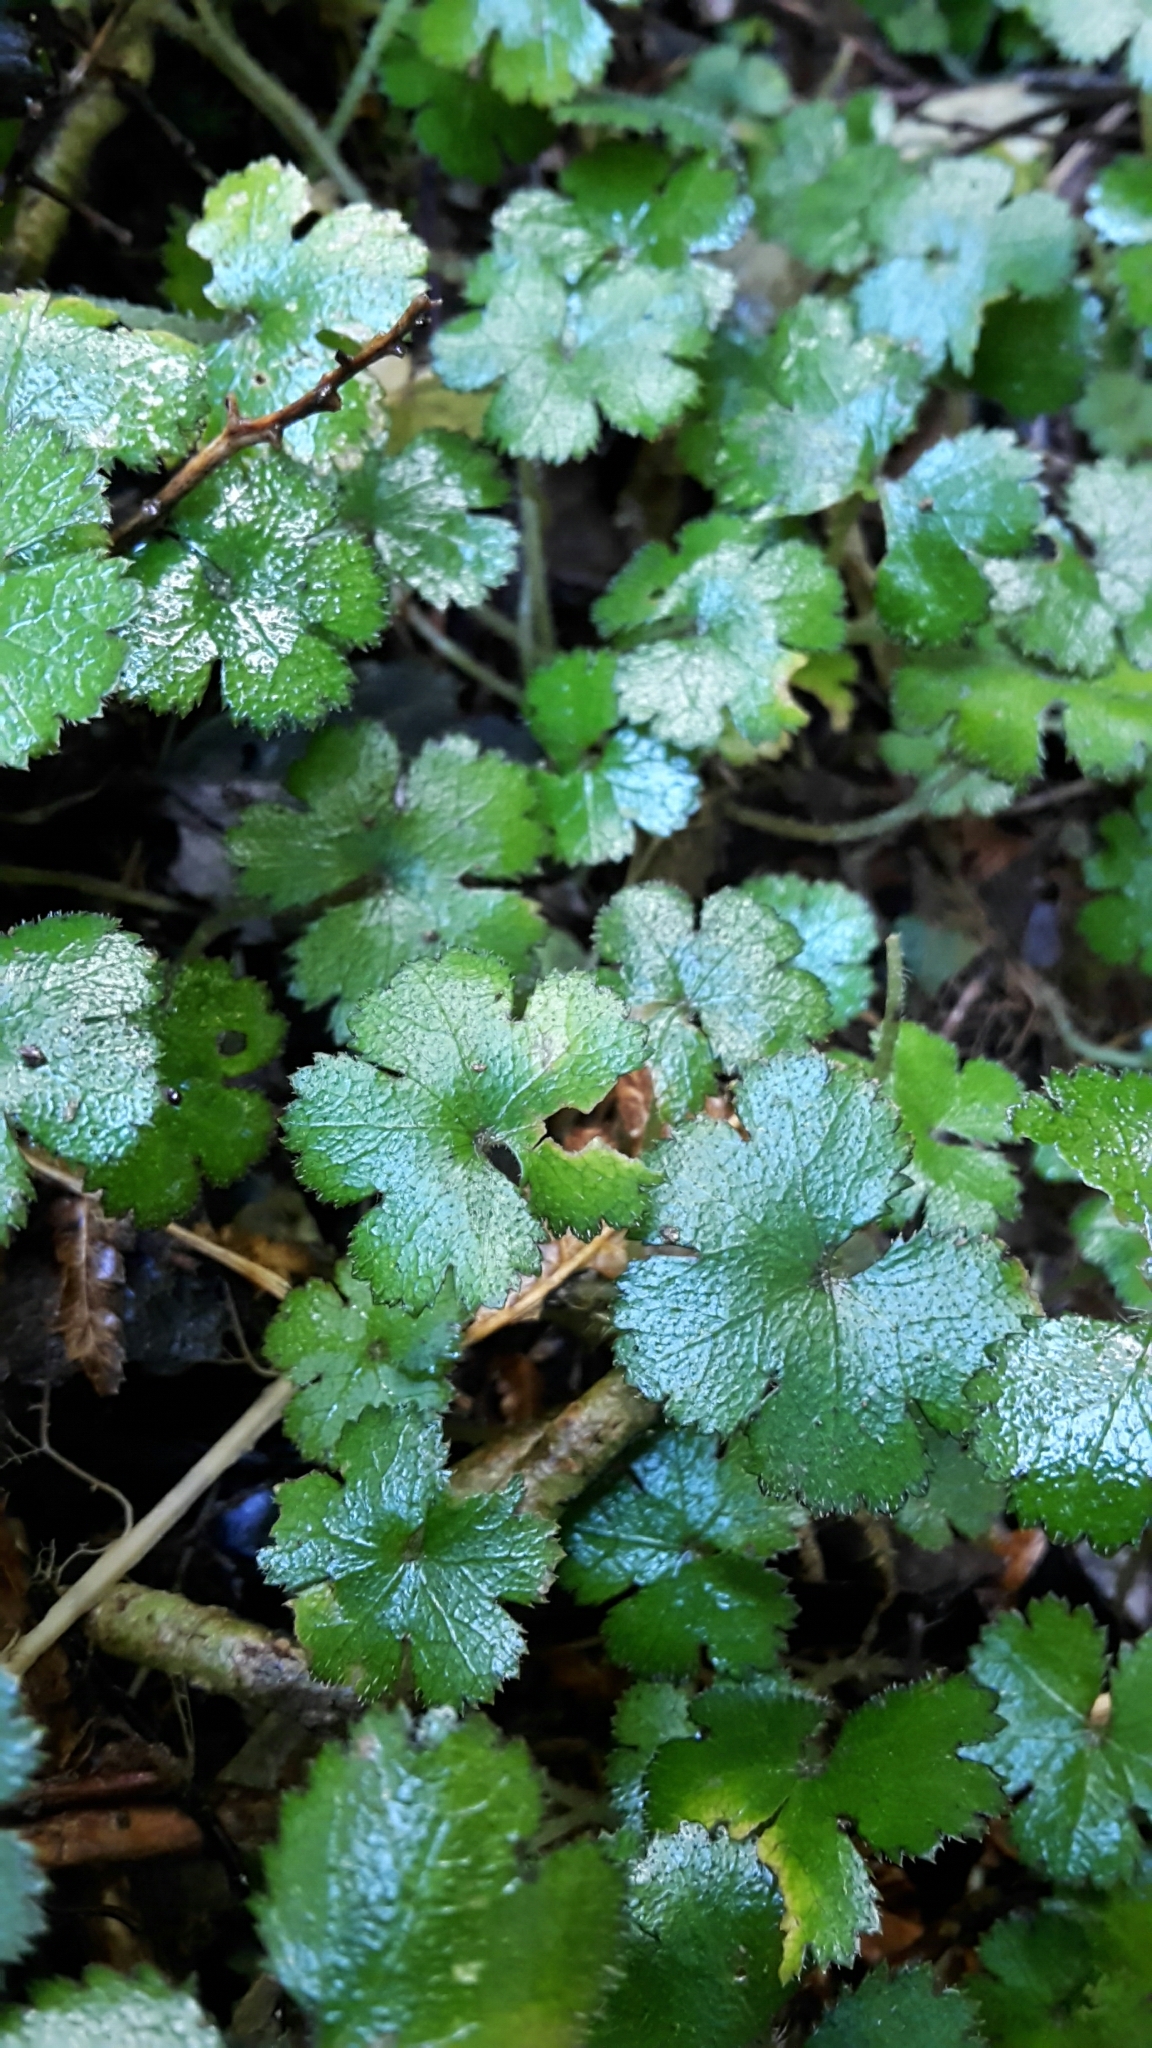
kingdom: Plantae
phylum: Tracheophyta
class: Magnoliopsida
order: Apiales
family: Araliaceae
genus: Hydrocotyle
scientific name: Hydrocotyle elongata
